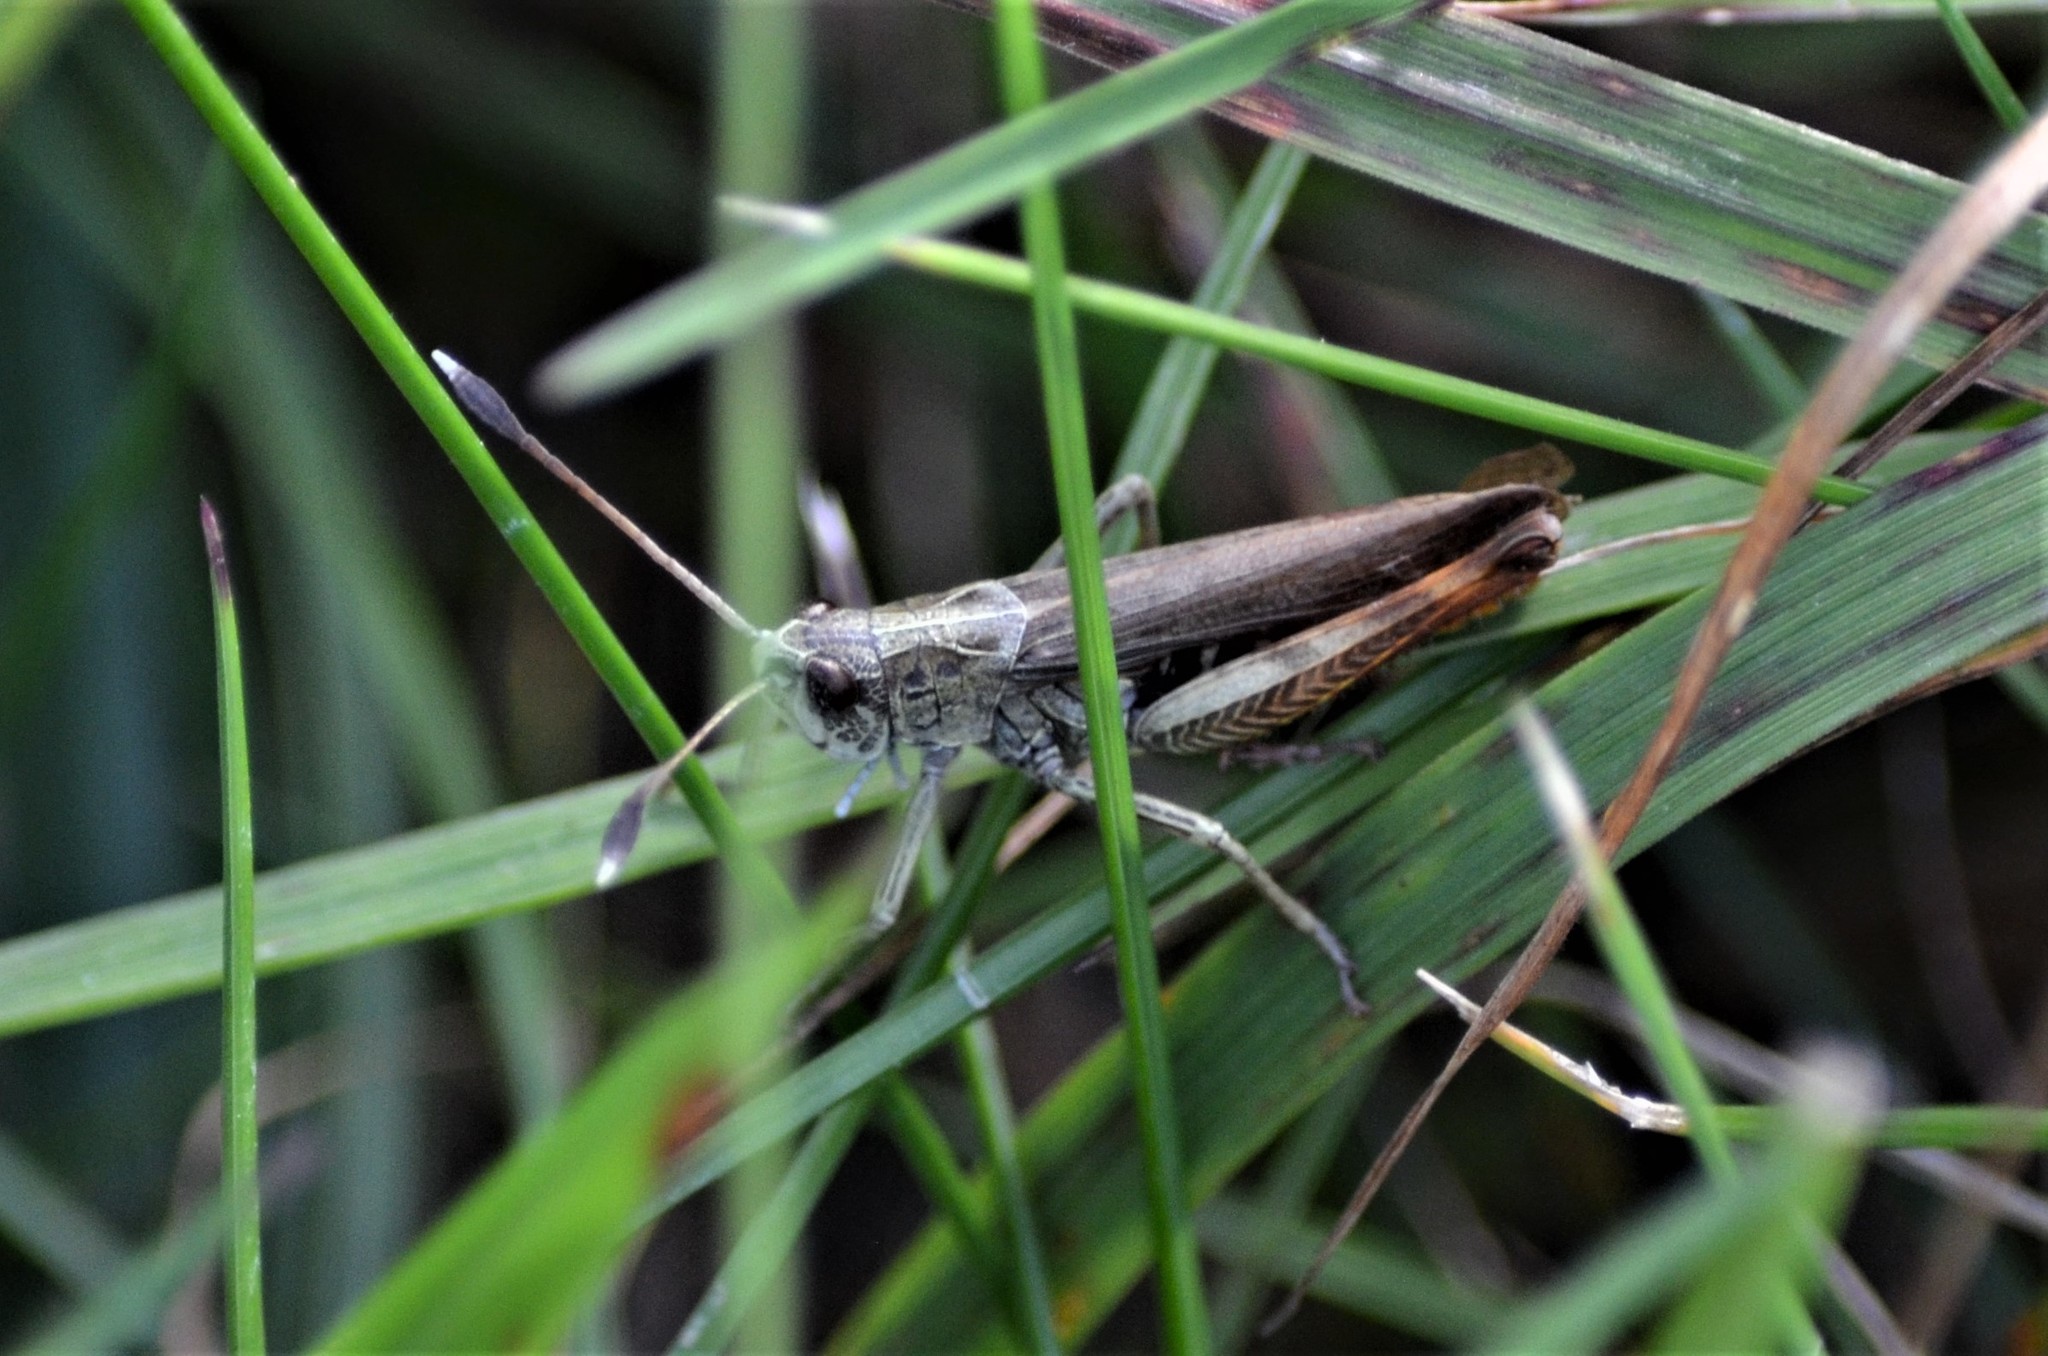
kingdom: Animalia
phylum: Arthropoda
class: Insecta
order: Orthoptera
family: Acrididae
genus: Gomphocerippus
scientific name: Gomphocerippus rufus
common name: Rufous grasshopper
